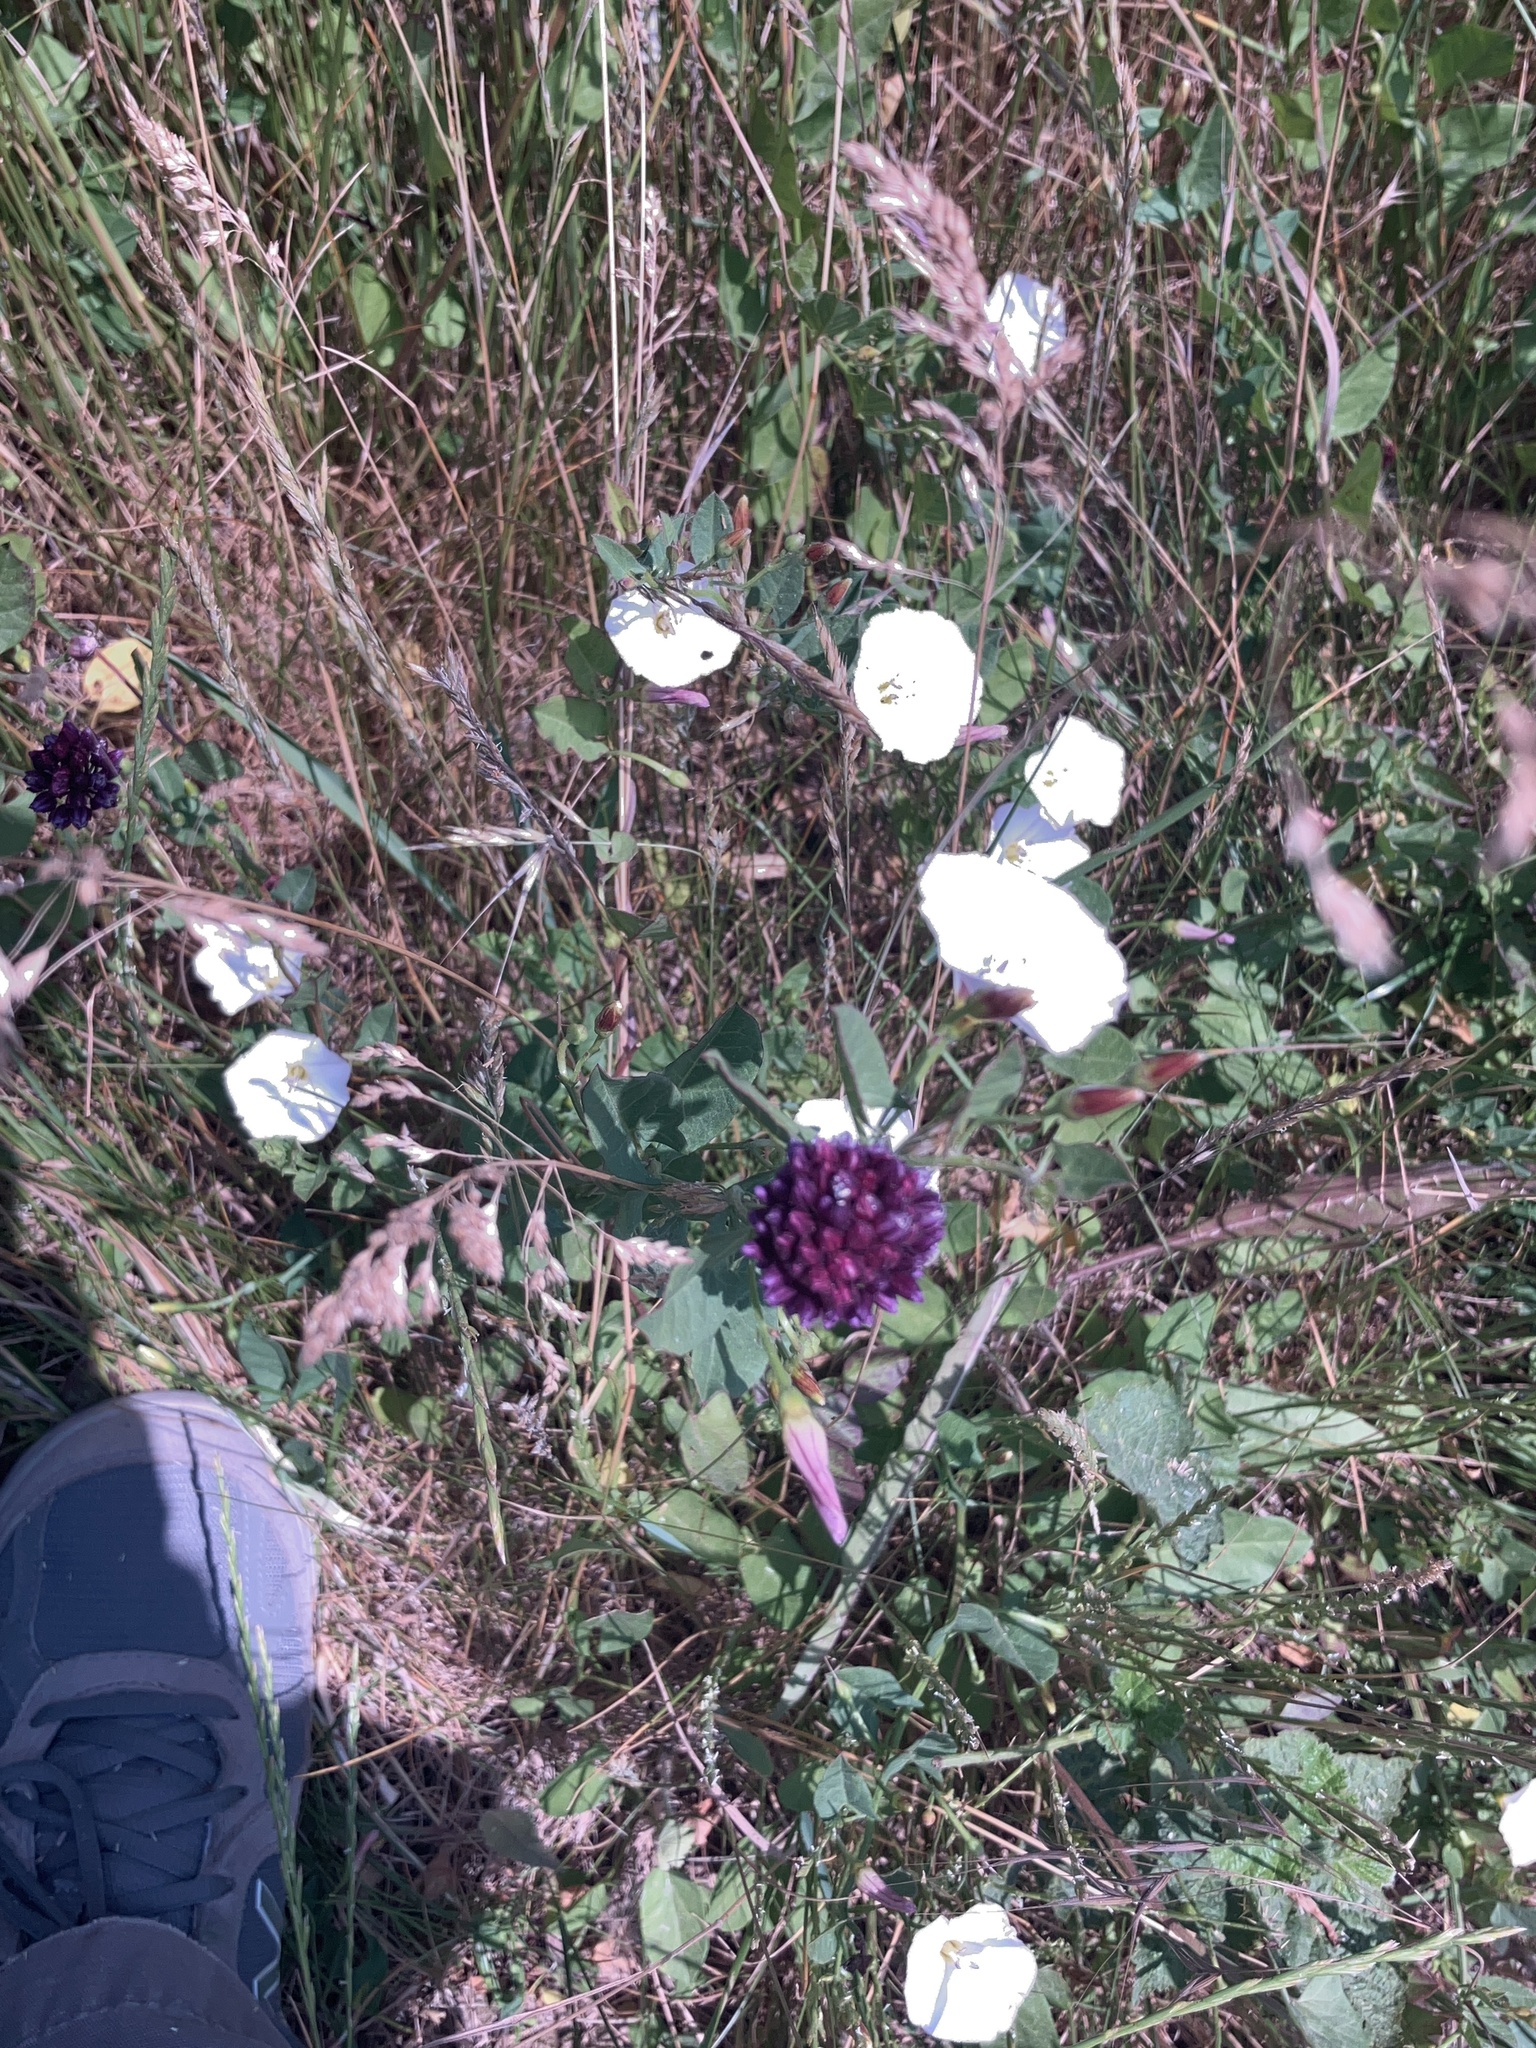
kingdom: Plantae
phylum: Tracheophyta
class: Liliopsida
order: Asparagales
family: Amaryllidaceae
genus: Allium
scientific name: Allium sphaerocephalon
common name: Round-headed leek
